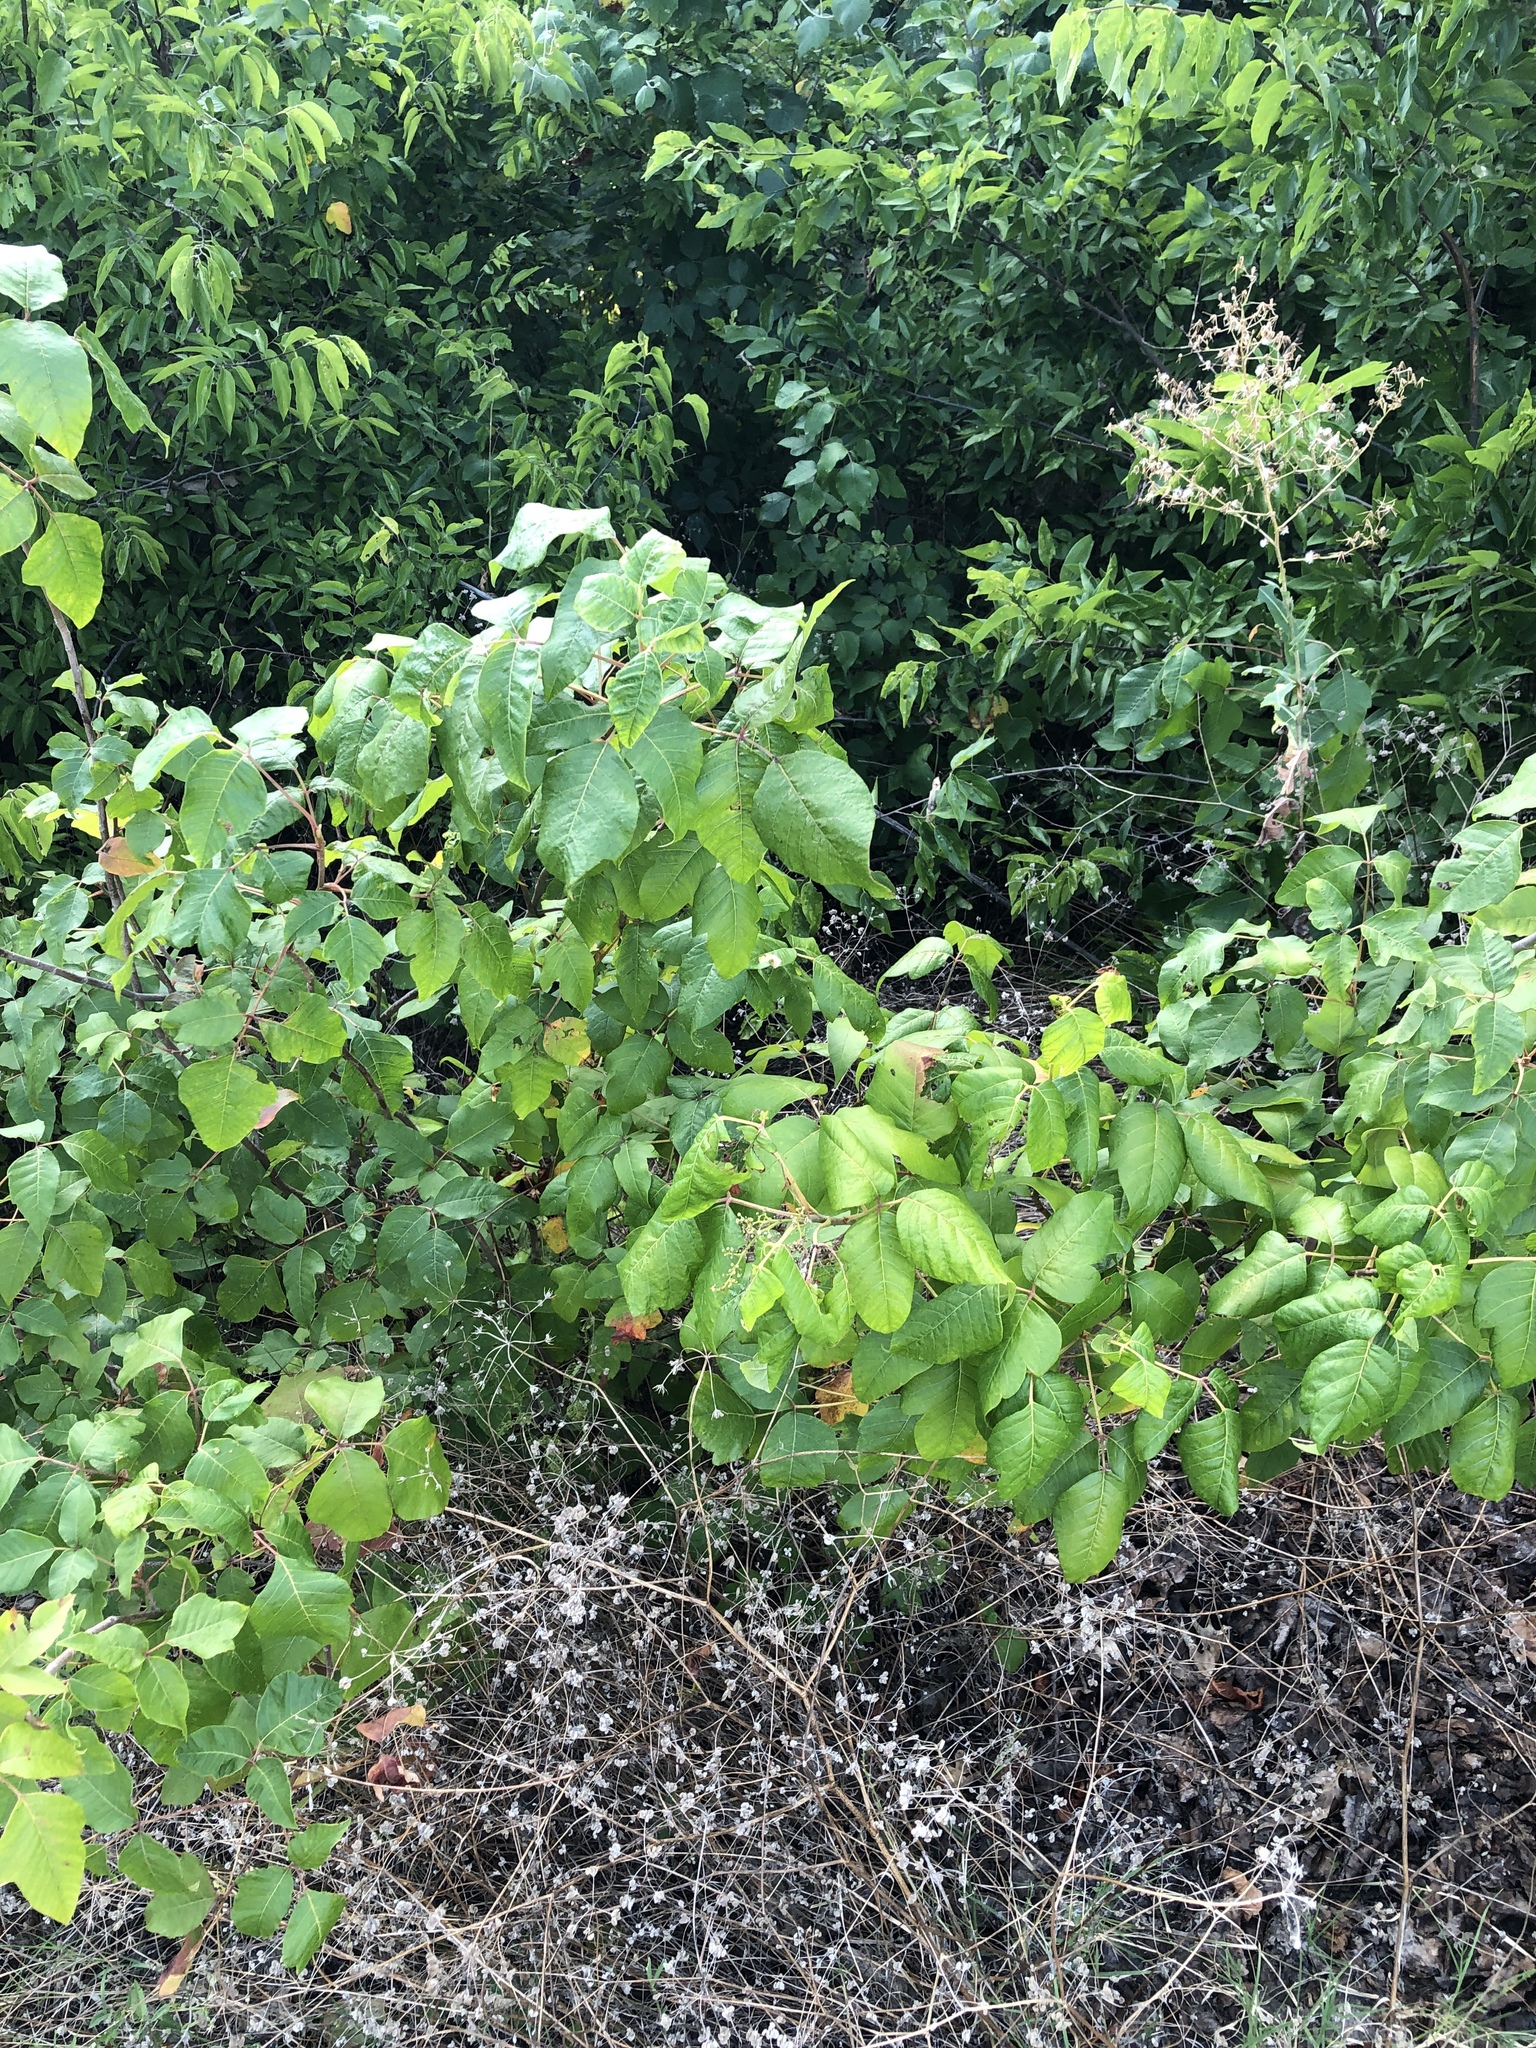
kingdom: Plantae
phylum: Tracheophyta
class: Magnoliopsida
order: Sapindales
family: Anacardiaceae
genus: Toxicodendron
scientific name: Toxicodendron radicans
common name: Poison ivy
